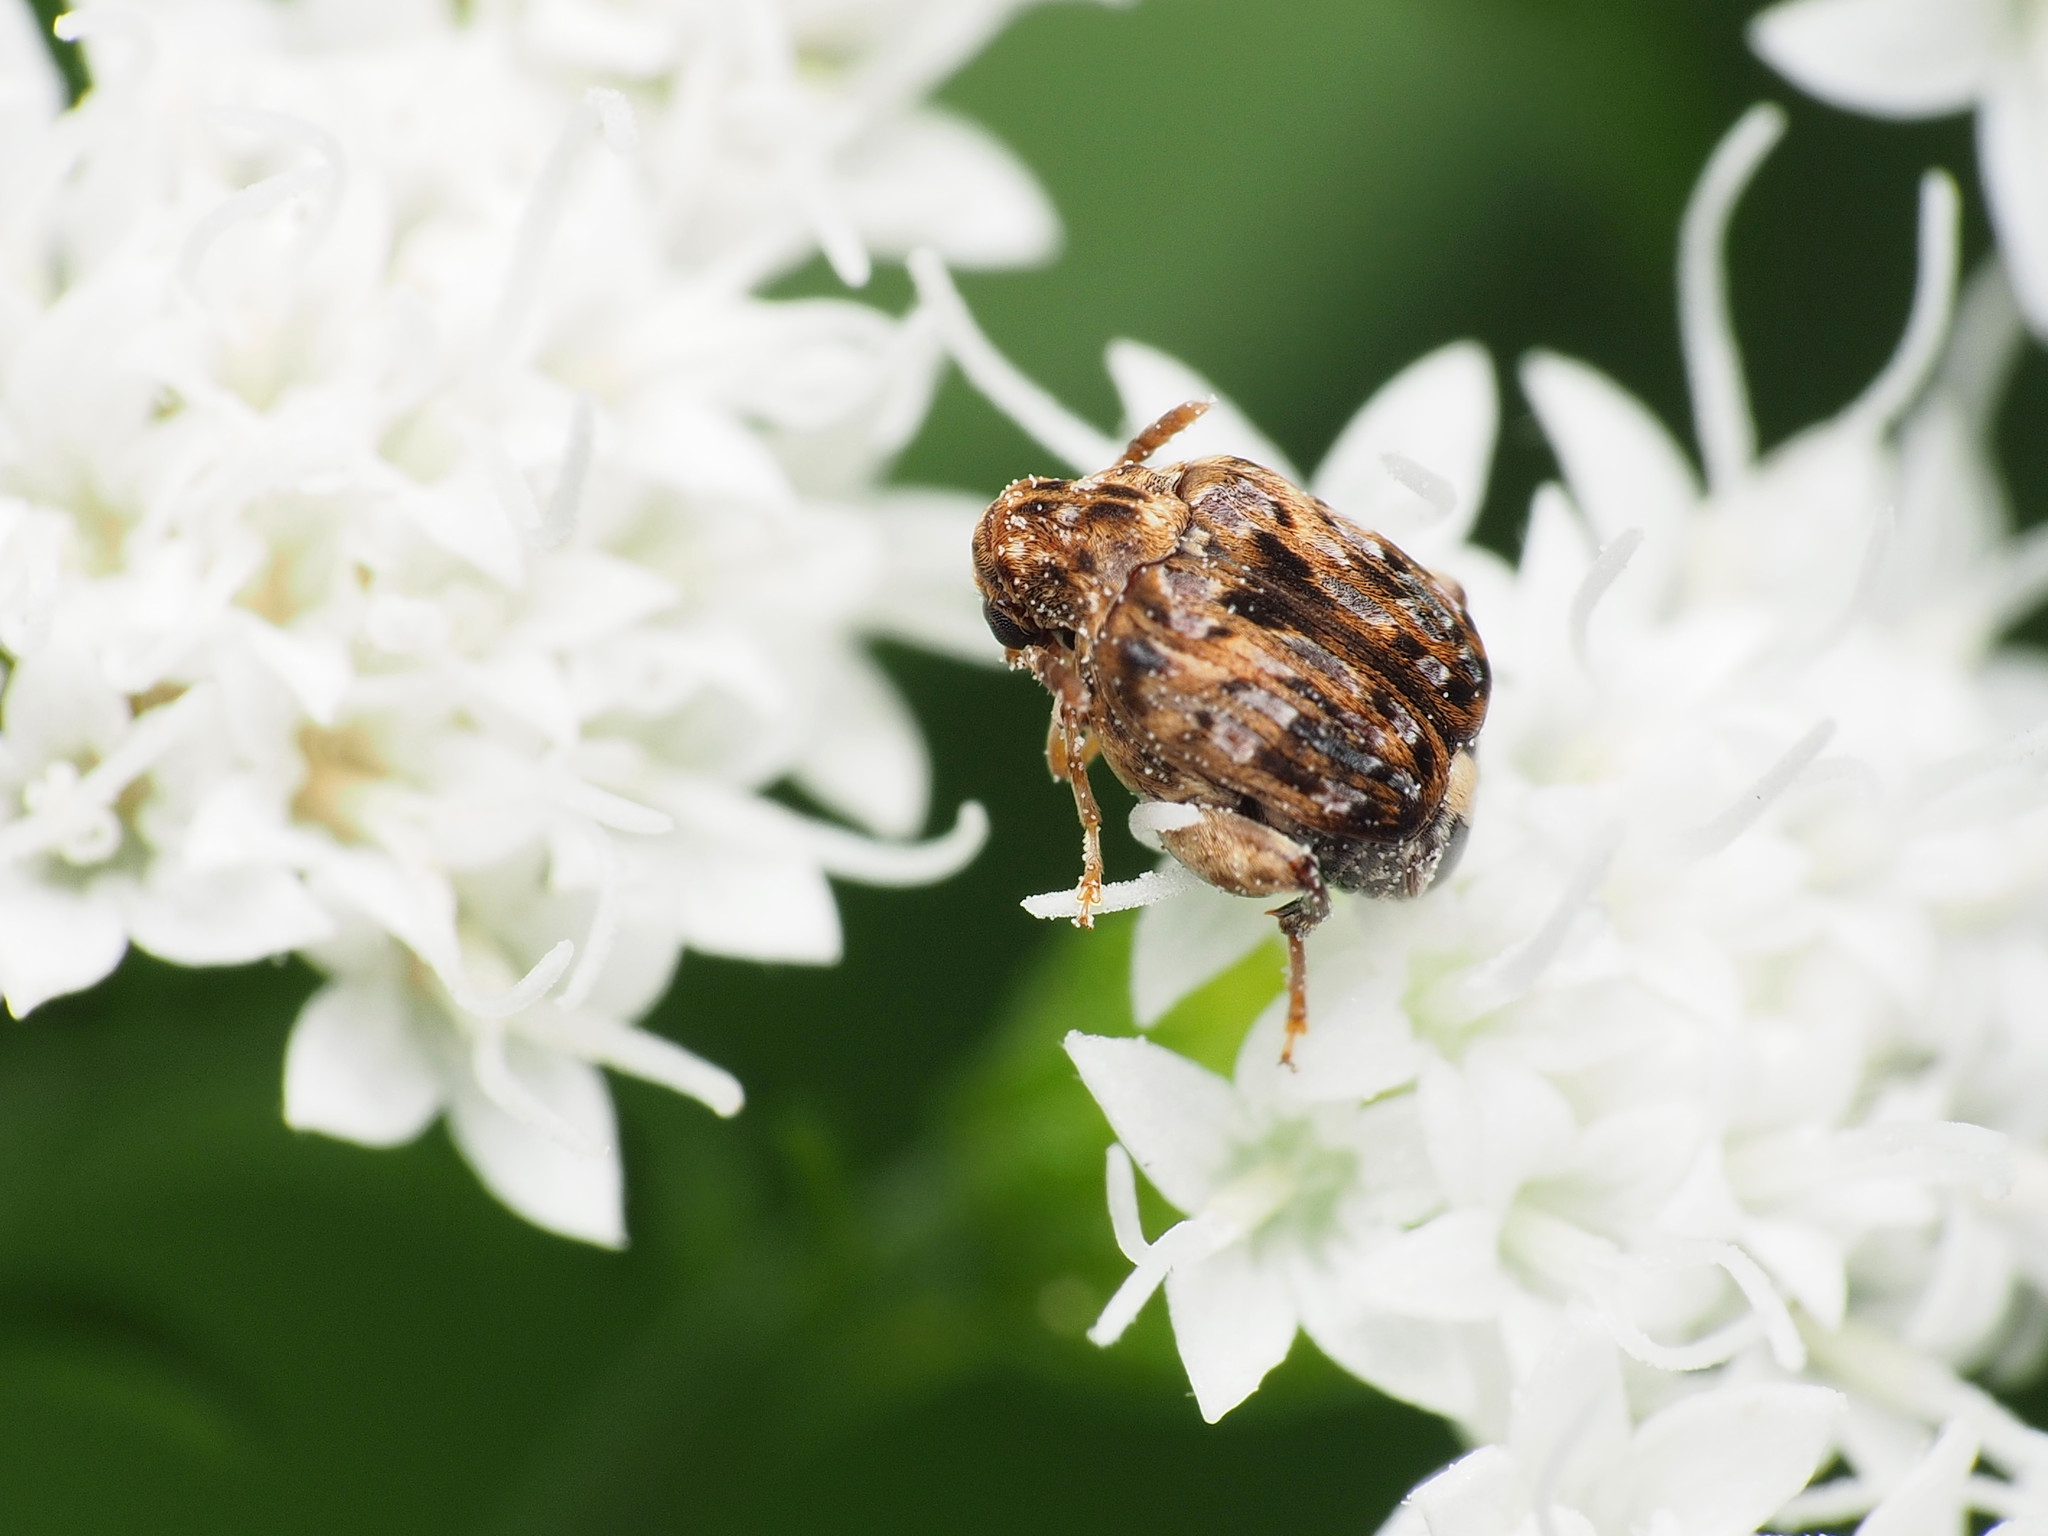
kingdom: Animalia
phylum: Arthropoda
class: Insecta
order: Coleoptera
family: Chrysomelidae
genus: Gibbobruchus
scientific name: Gibbobruchus mimus
